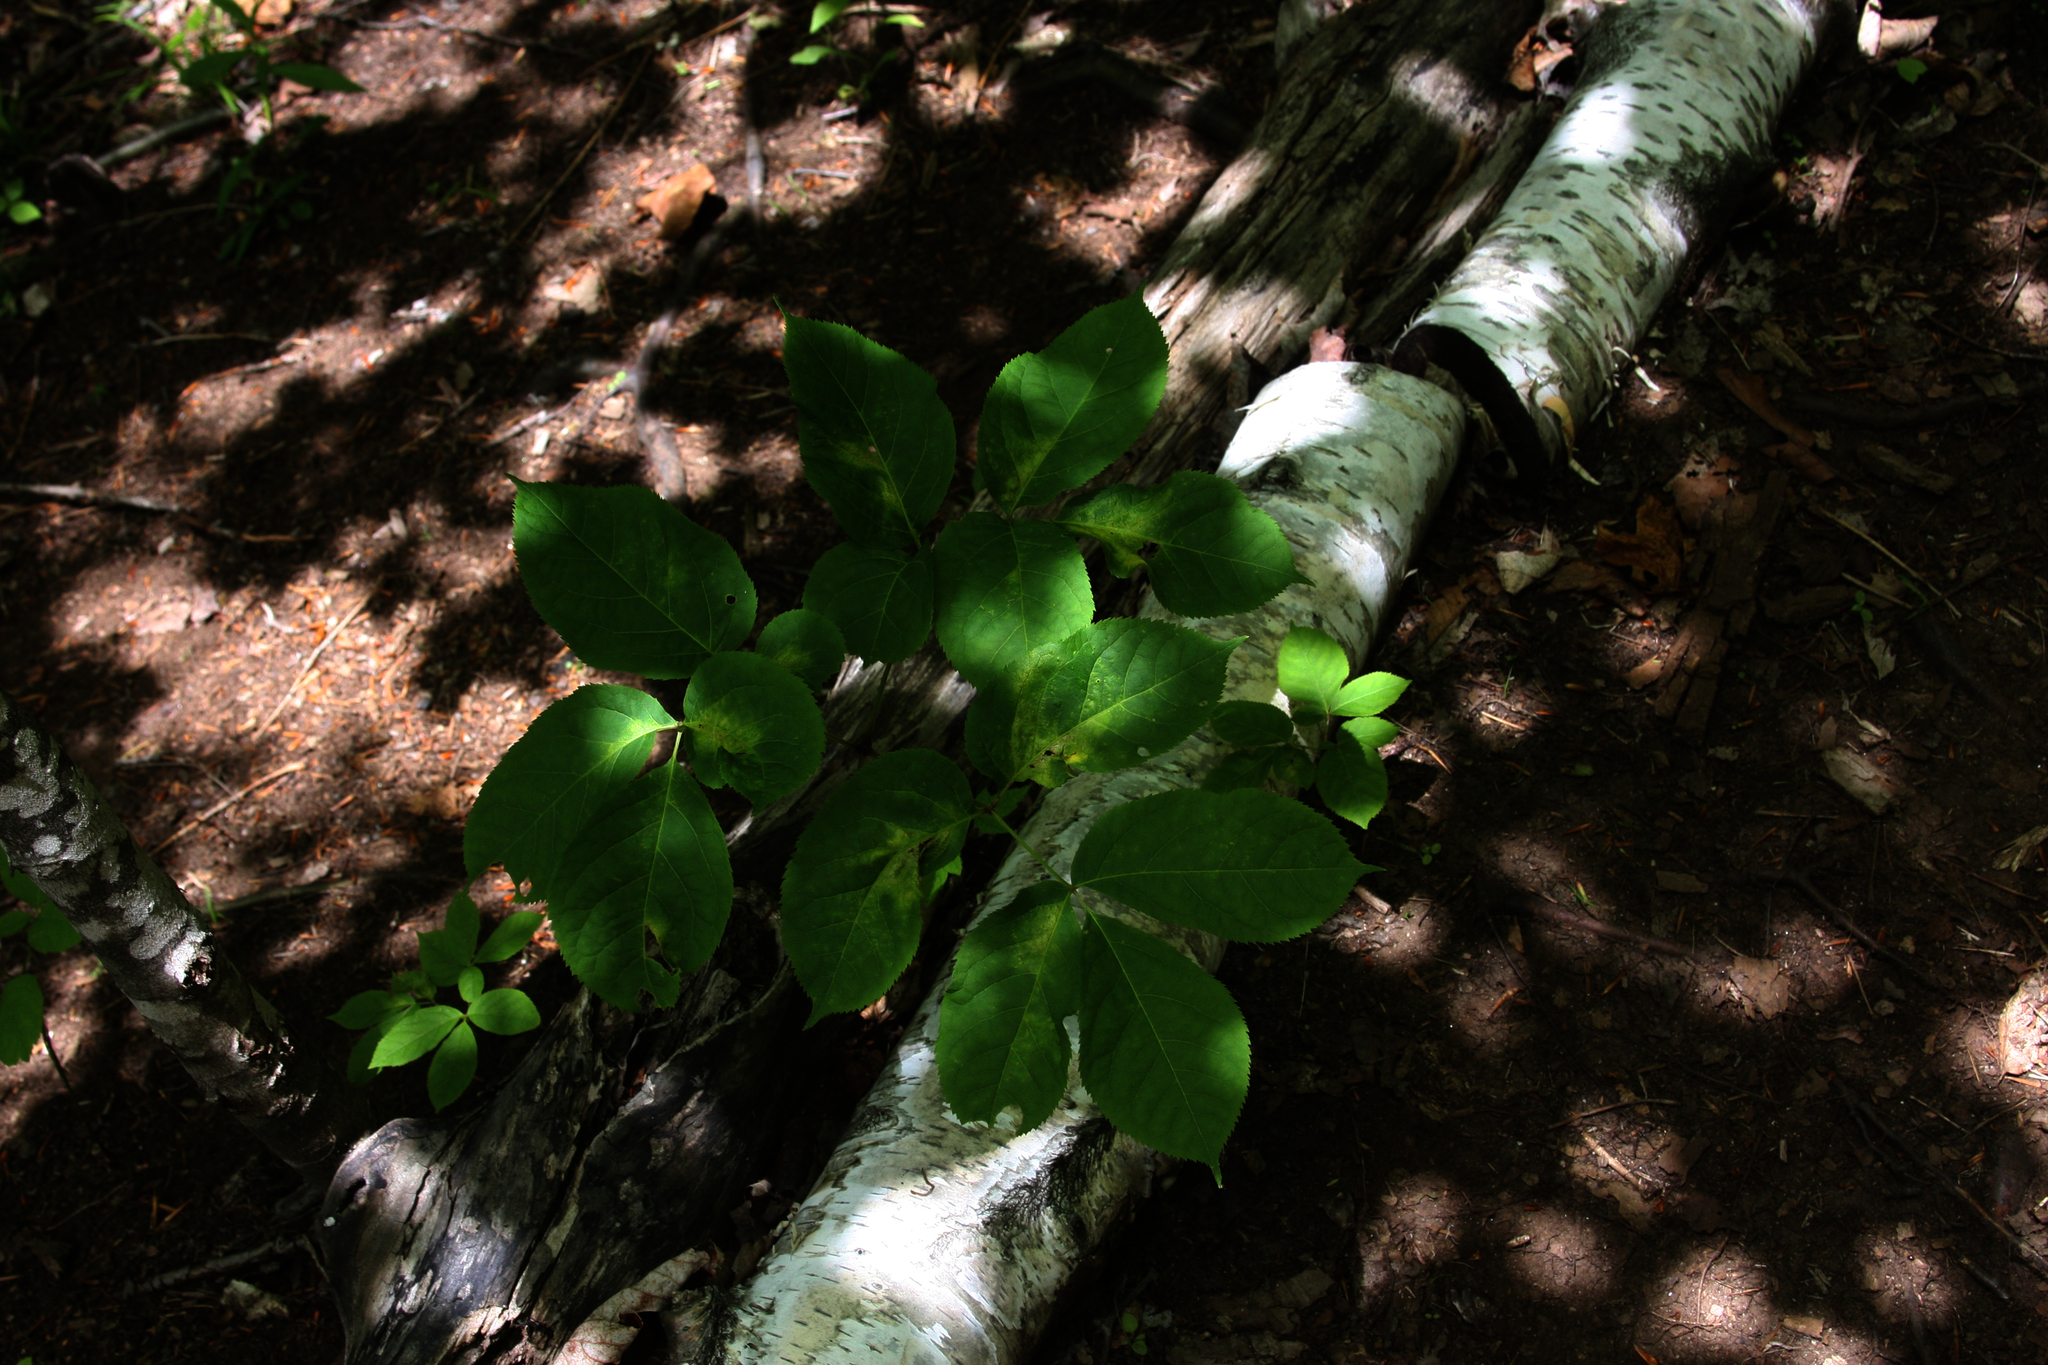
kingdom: Plantae
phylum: Tracheophyta
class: Magnoliopsida
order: Apiales
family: Araliaceae
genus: Aralia
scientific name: Aralia nudicaulis
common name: Wild sarsaparilla
